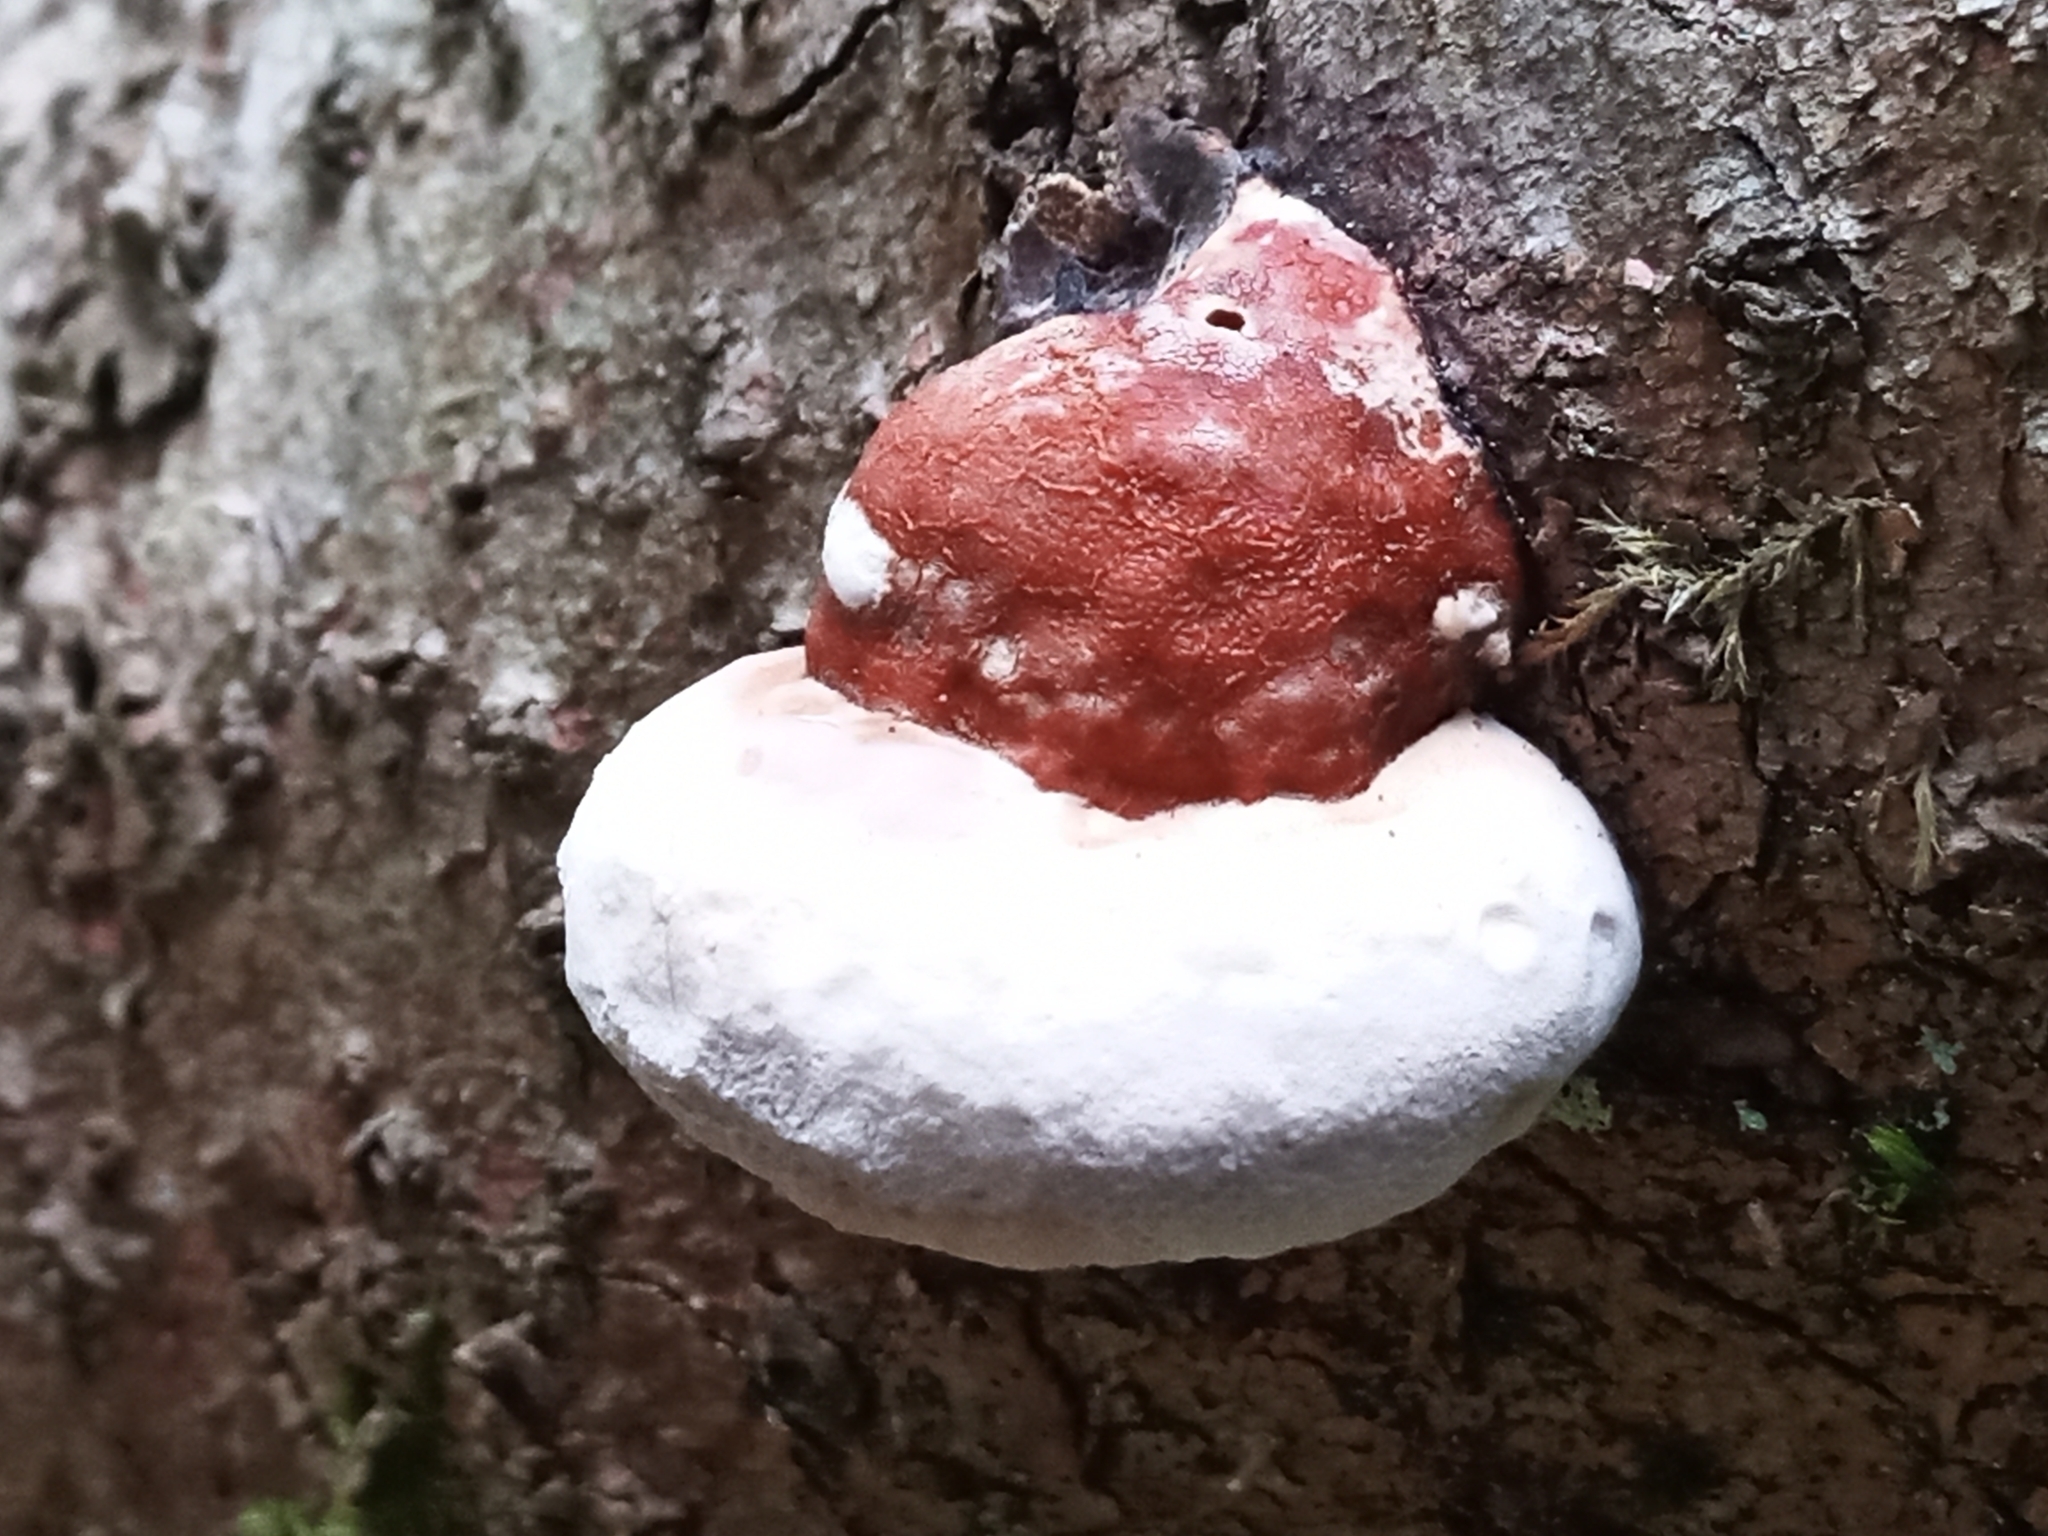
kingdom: Fungi
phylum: Basidiomycota
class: Agaricomycetes
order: Polyporales
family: Fomitopsidaceae
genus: Fomitopsis
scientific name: Fomitopsis pinicola
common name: Red-belted bracket
